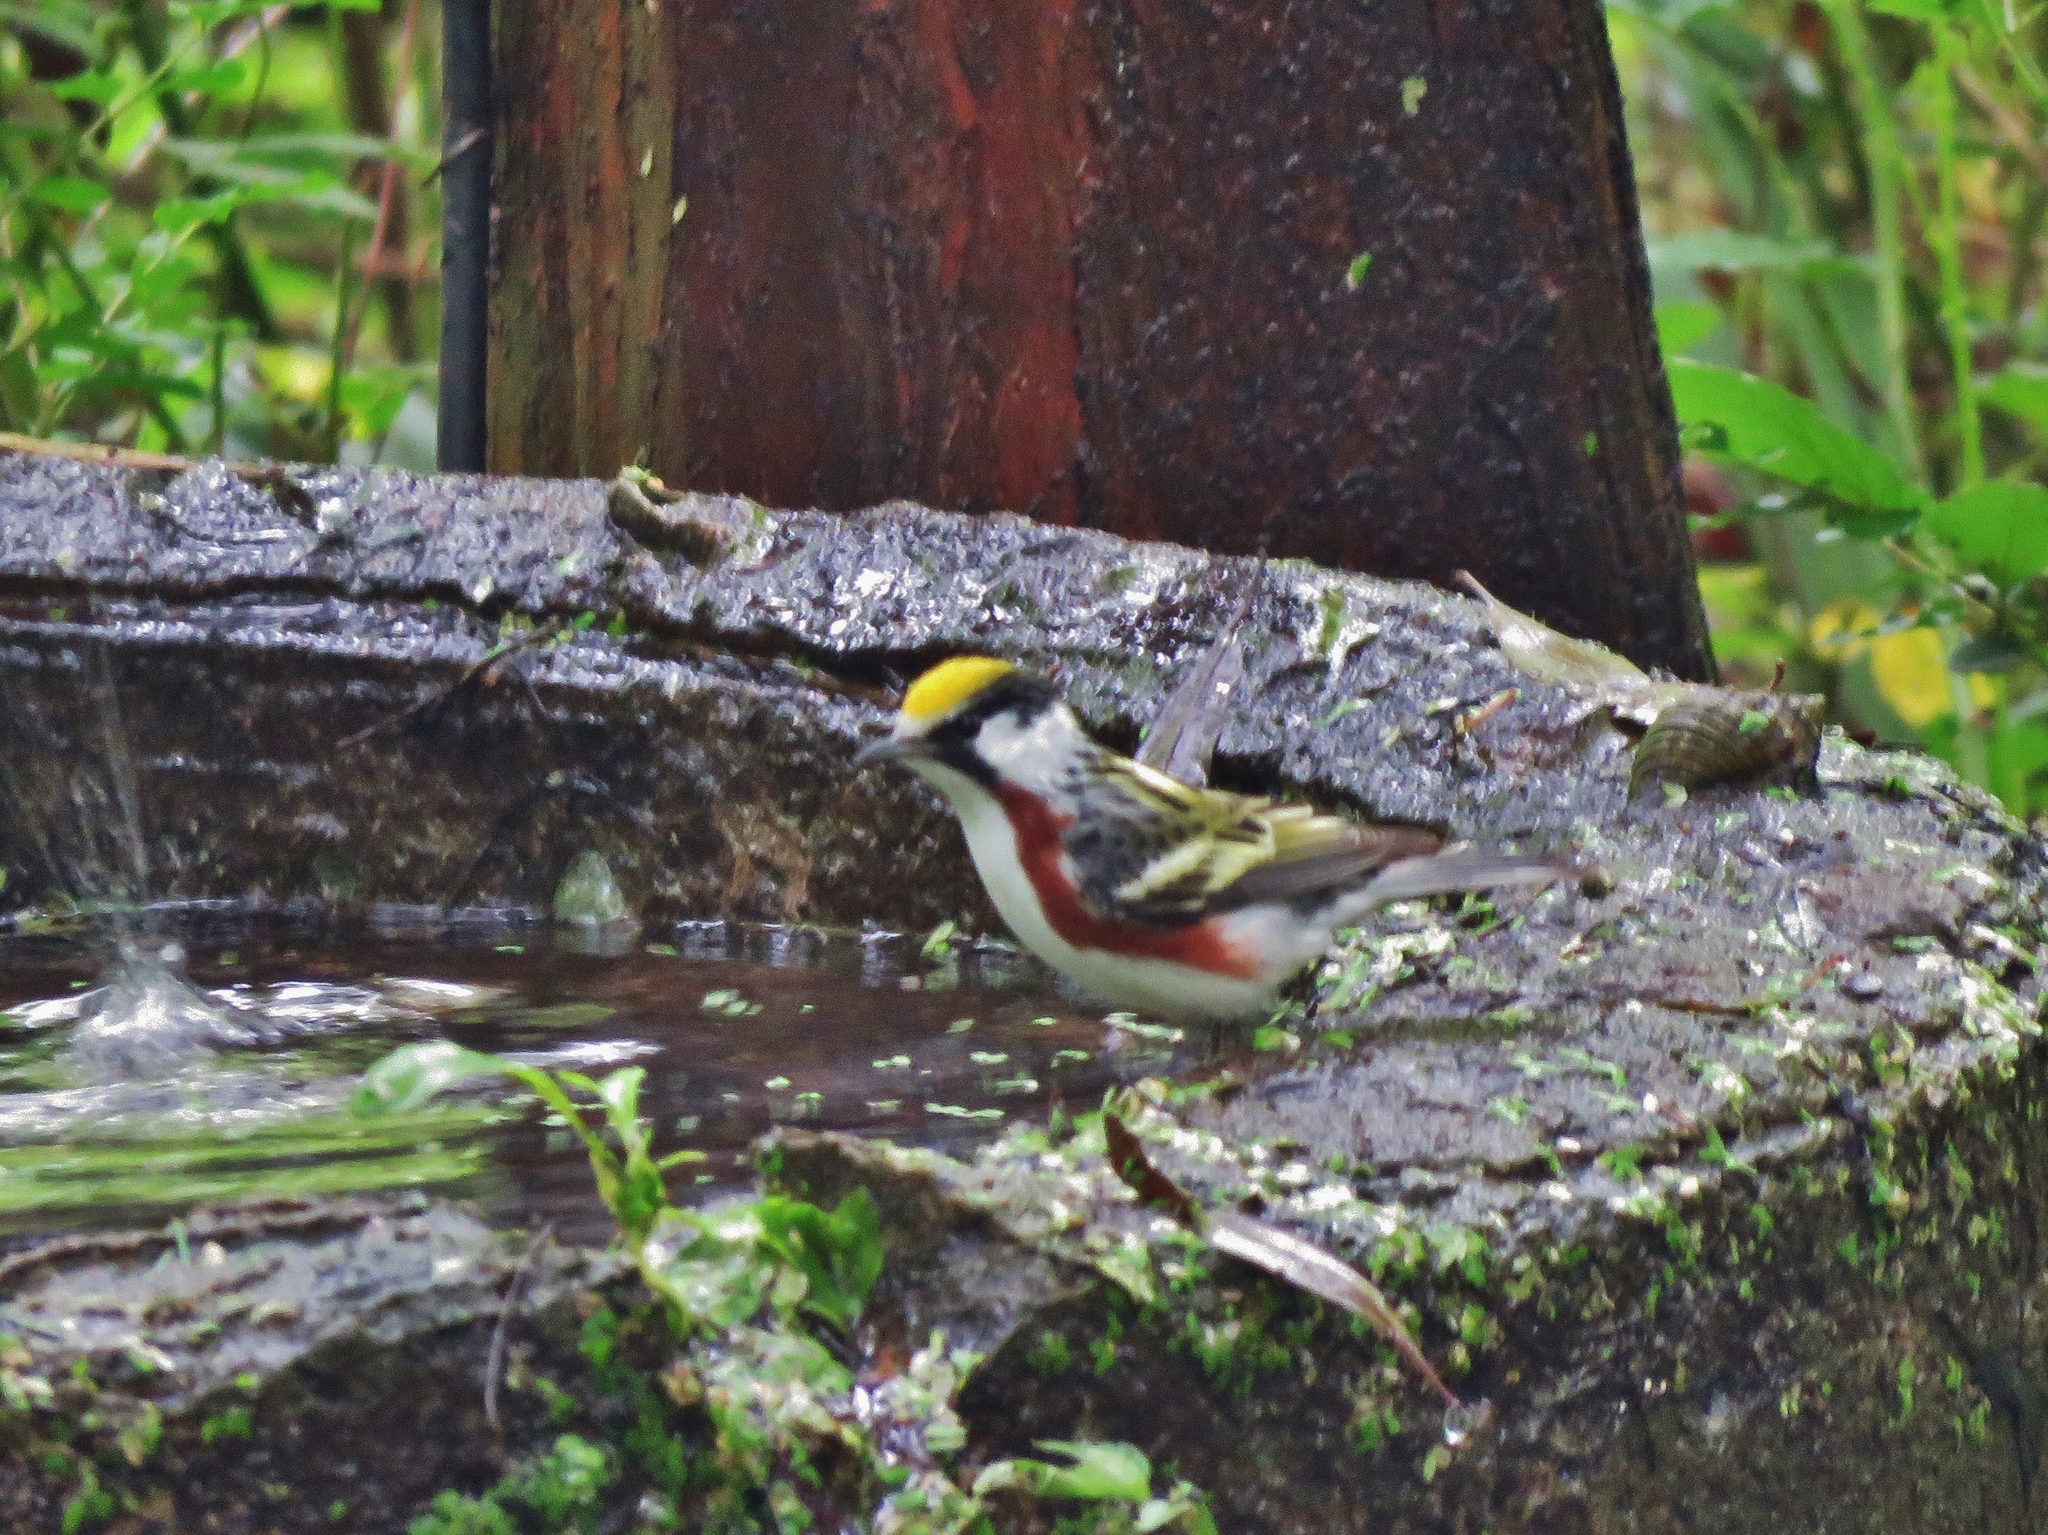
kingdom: Animalia
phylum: Chordata
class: Aves
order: Passeriformes
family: Parulidae
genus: Setophaga
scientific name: Setophaga pensylvanica
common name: Chestnut-sided warbler
